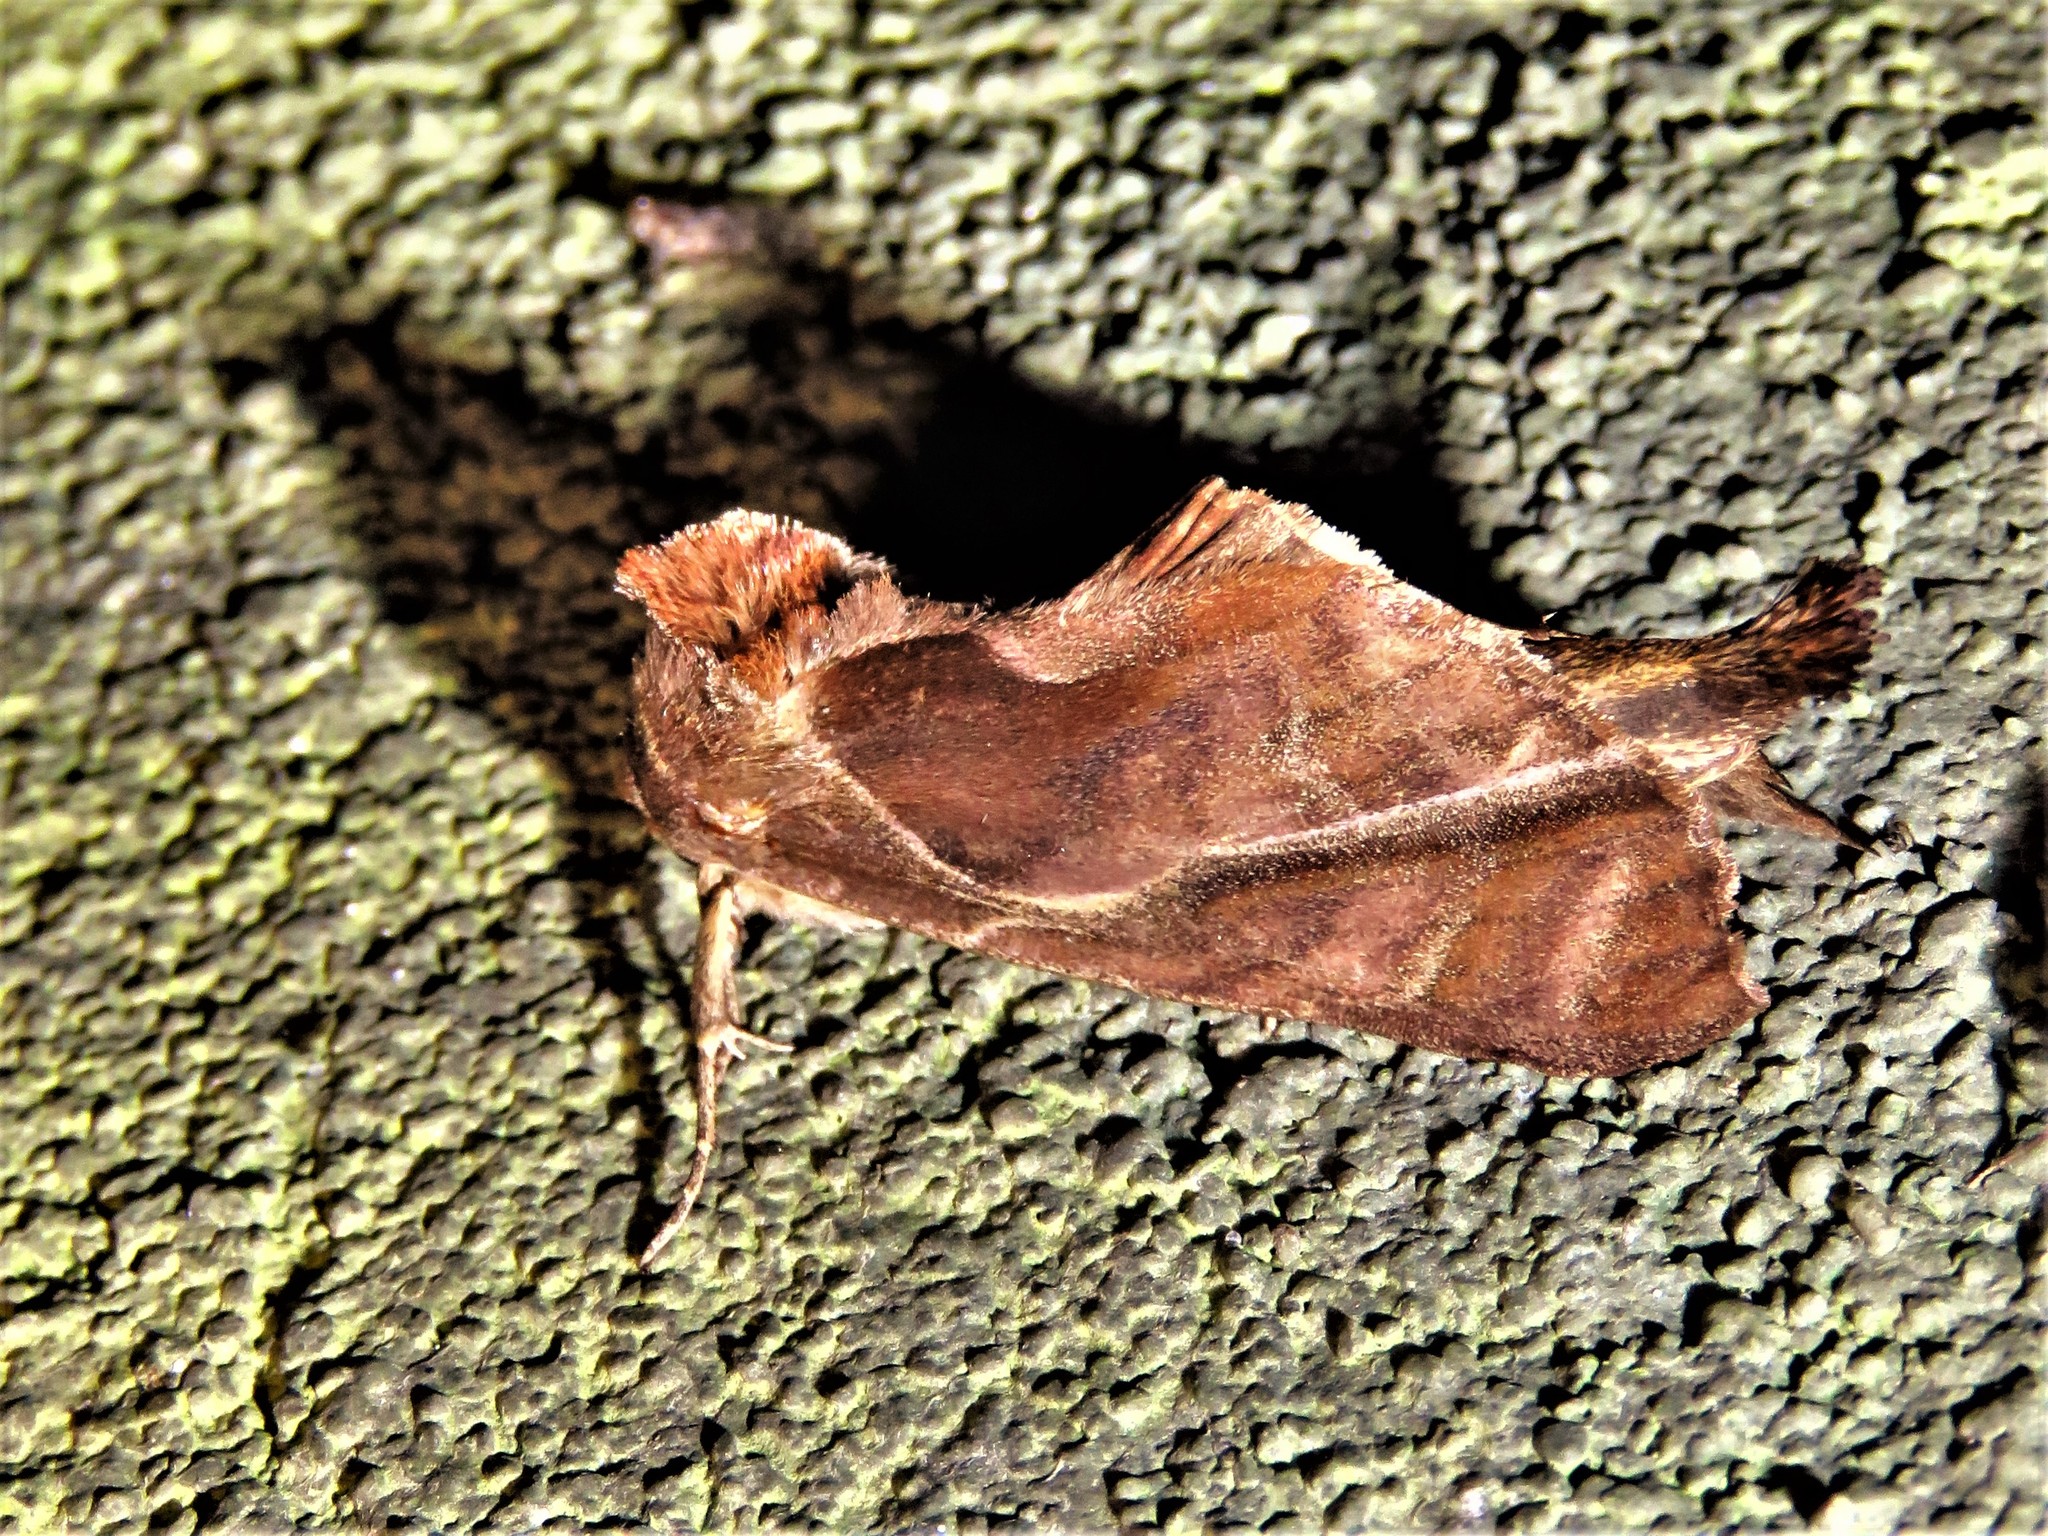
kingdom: Animalia
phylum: Arthropoda
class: Insecta
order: Lepidoptera
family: Notodontidae
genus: Crinodes
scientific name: Crinodes besckei
